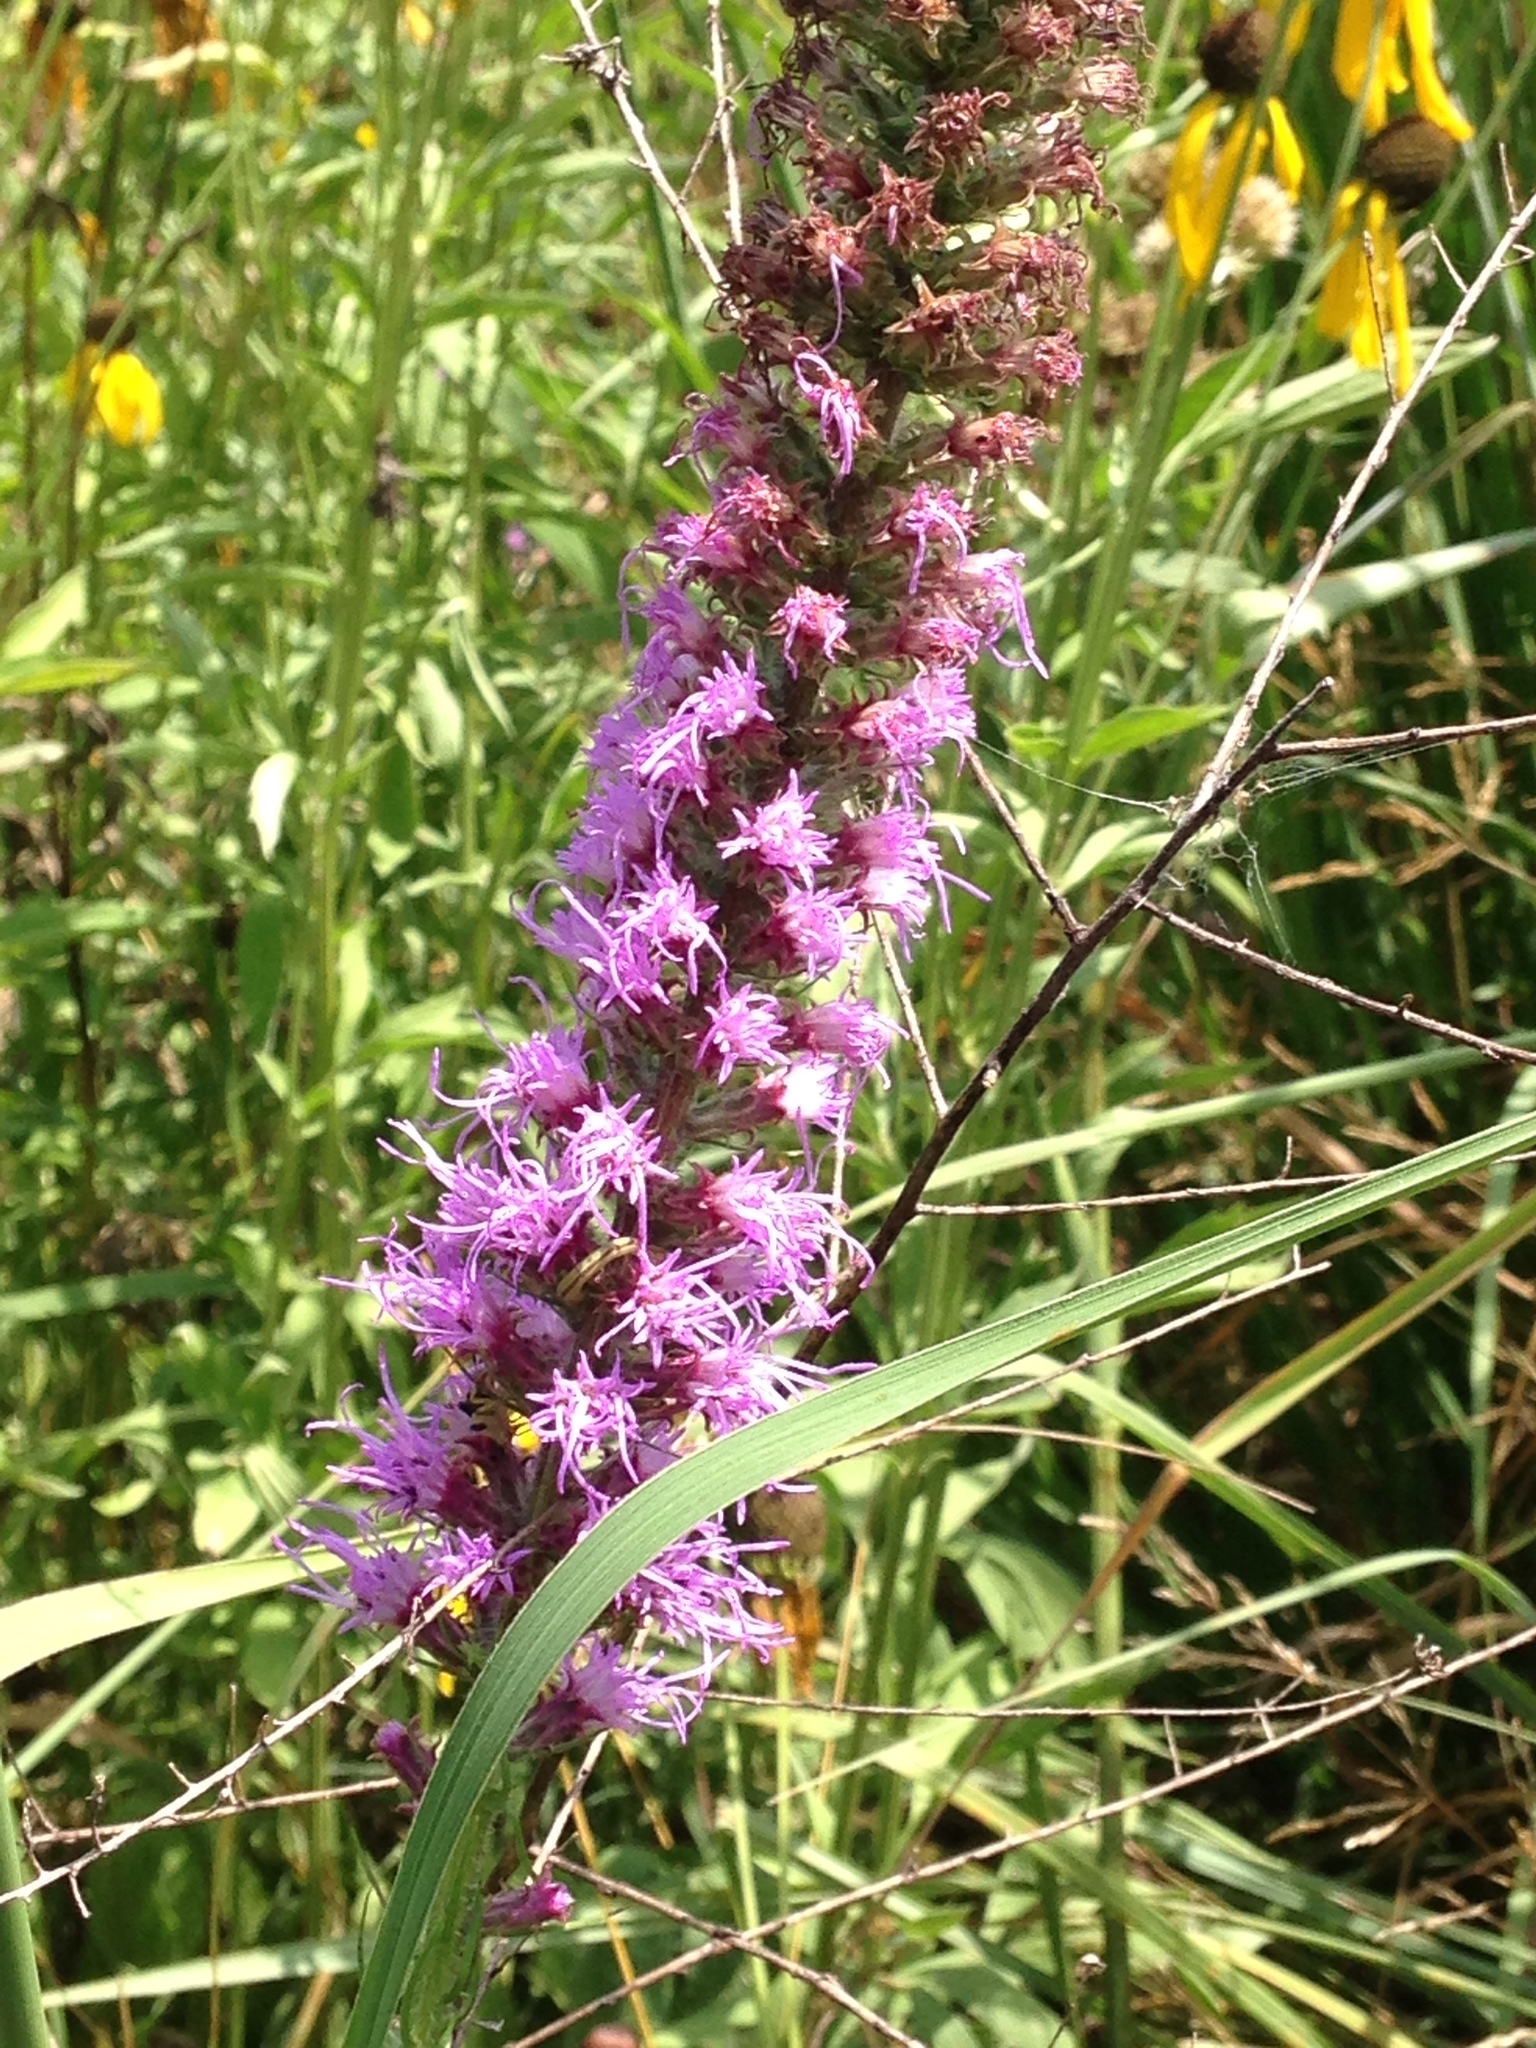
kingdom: Plantae
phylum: Tracheophyta
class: Magnoliopsida
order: Asterales
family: Asteraceae
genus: Liatris
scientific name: Liatris pycnostachya
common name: Cattail gayfeather
